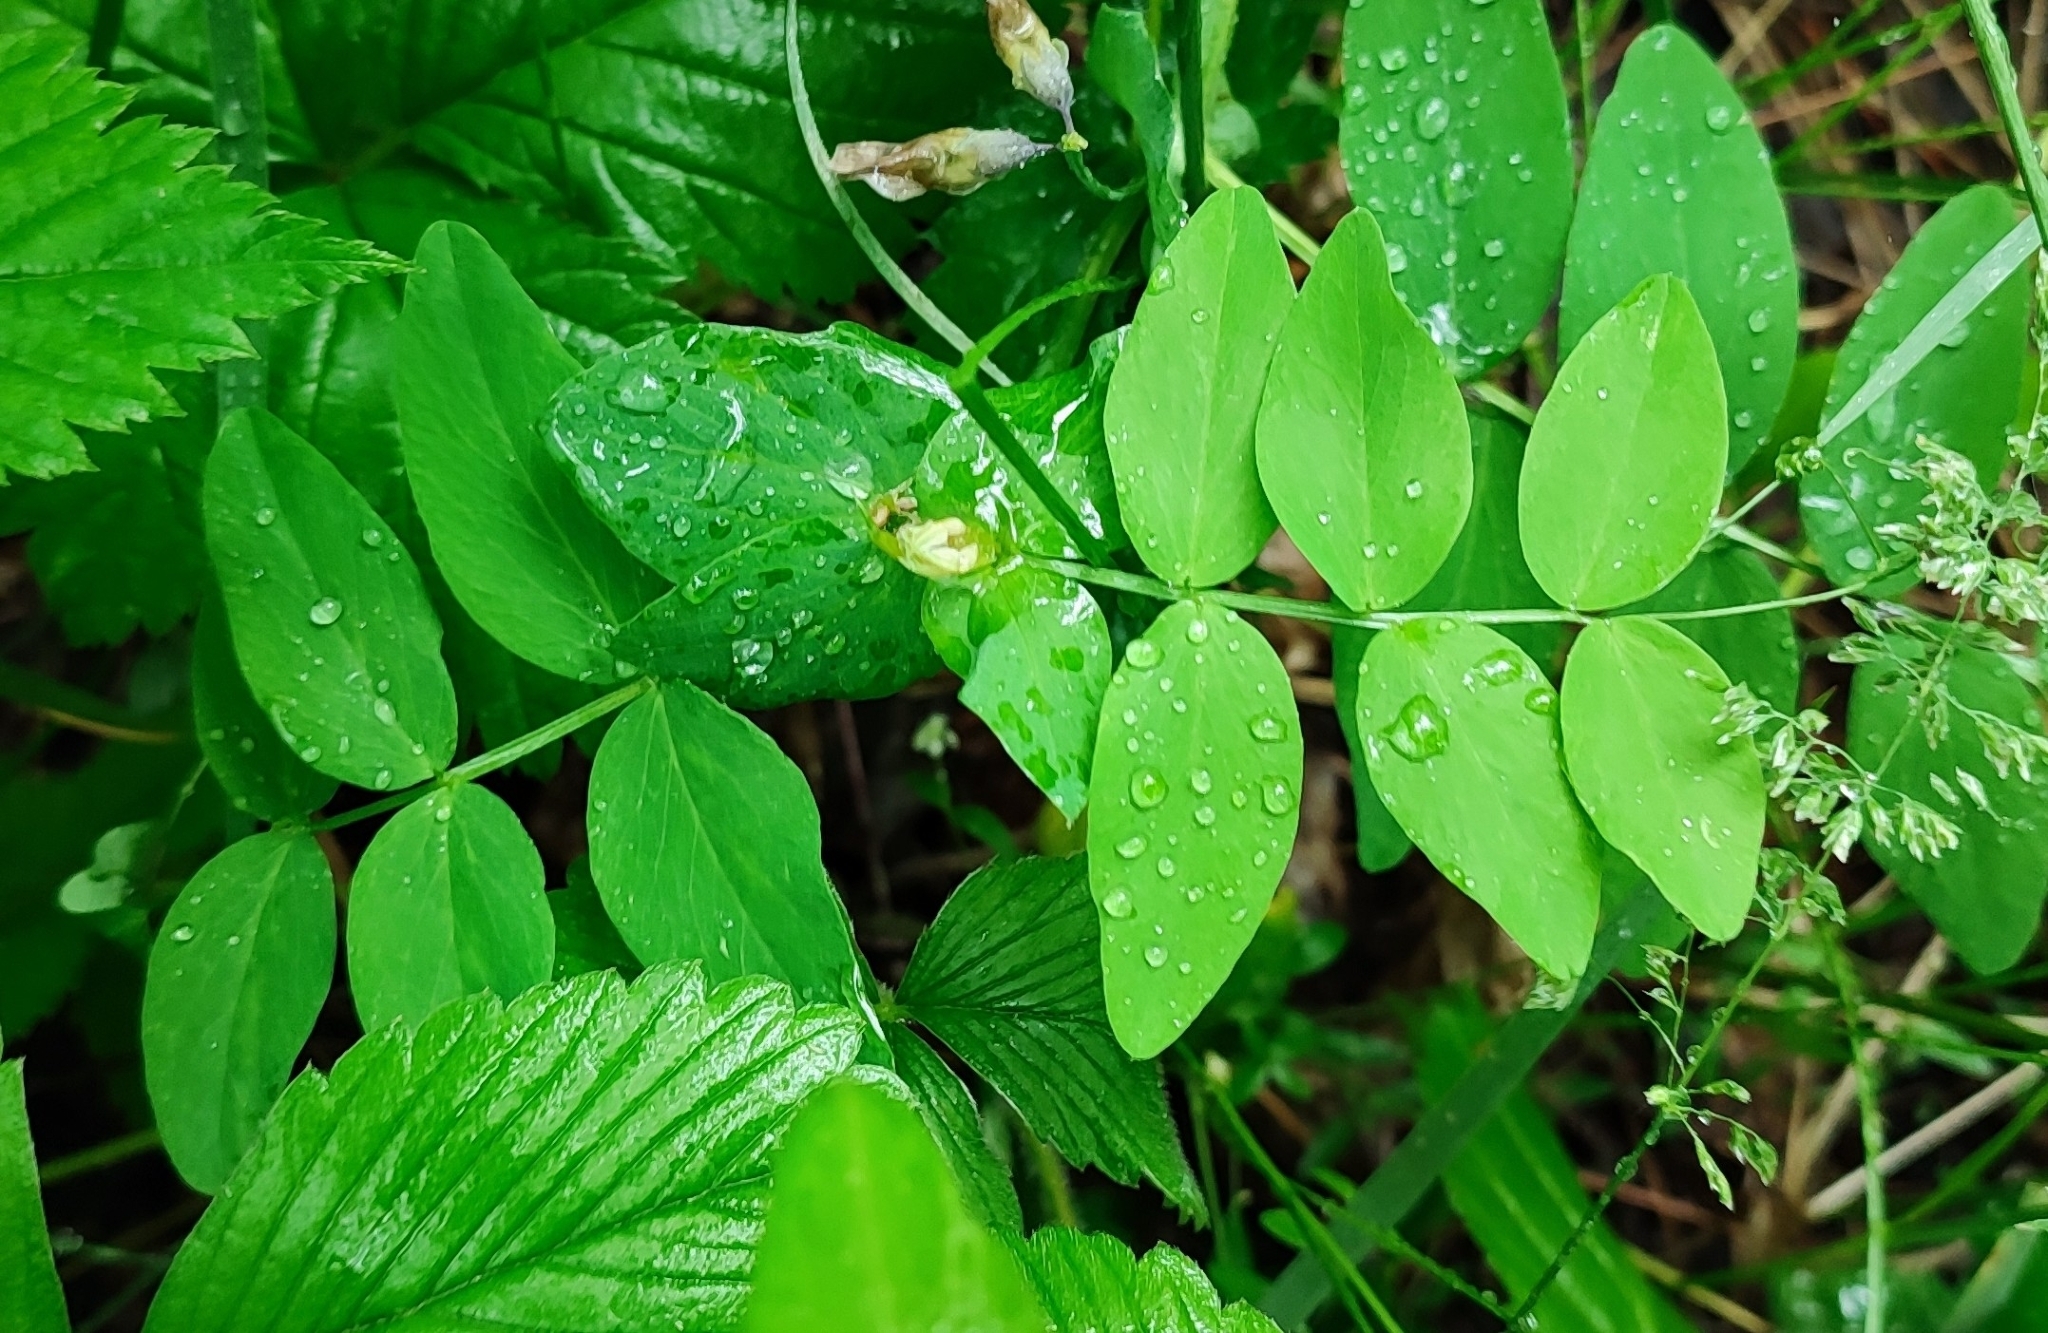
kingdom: Plantae
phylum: Tracheophyta
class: Magnoliopsida
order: Fabales
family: Fabaceae
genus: Vicia
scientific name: Vicia sepium
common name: Bush vetch
